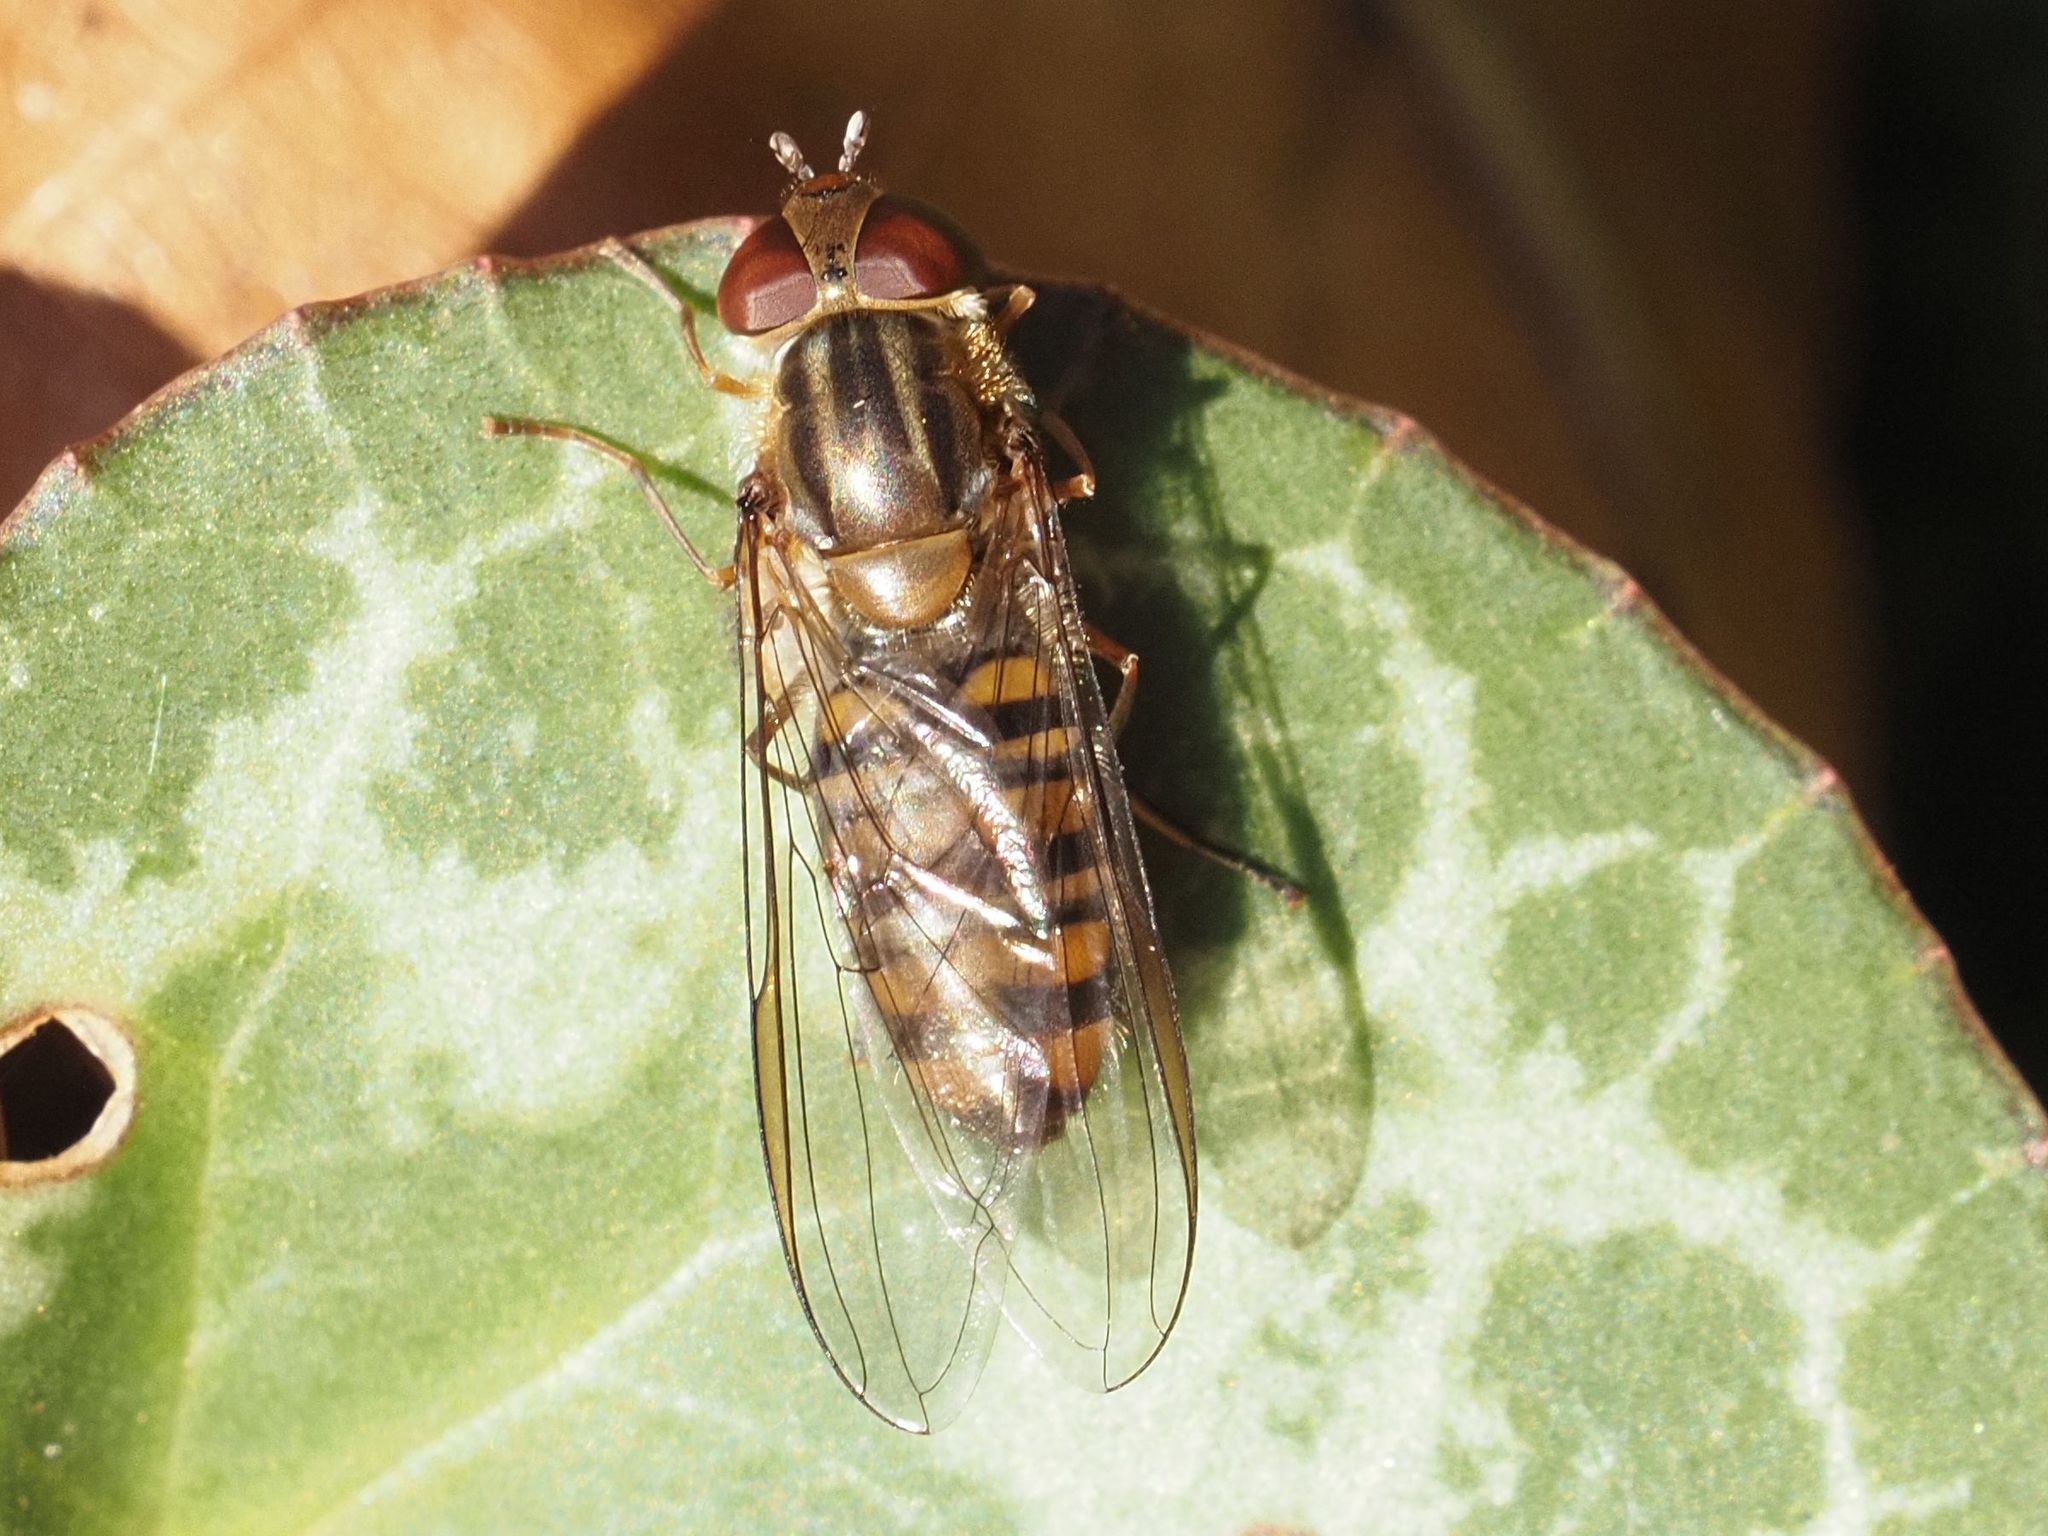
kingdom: Animalia
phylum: Arthropoda
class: Insecta
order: Diptera
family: Syrphidae
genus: Episyrphus
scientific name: Episyrphus balteatus
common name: Marmalade hoverfly
